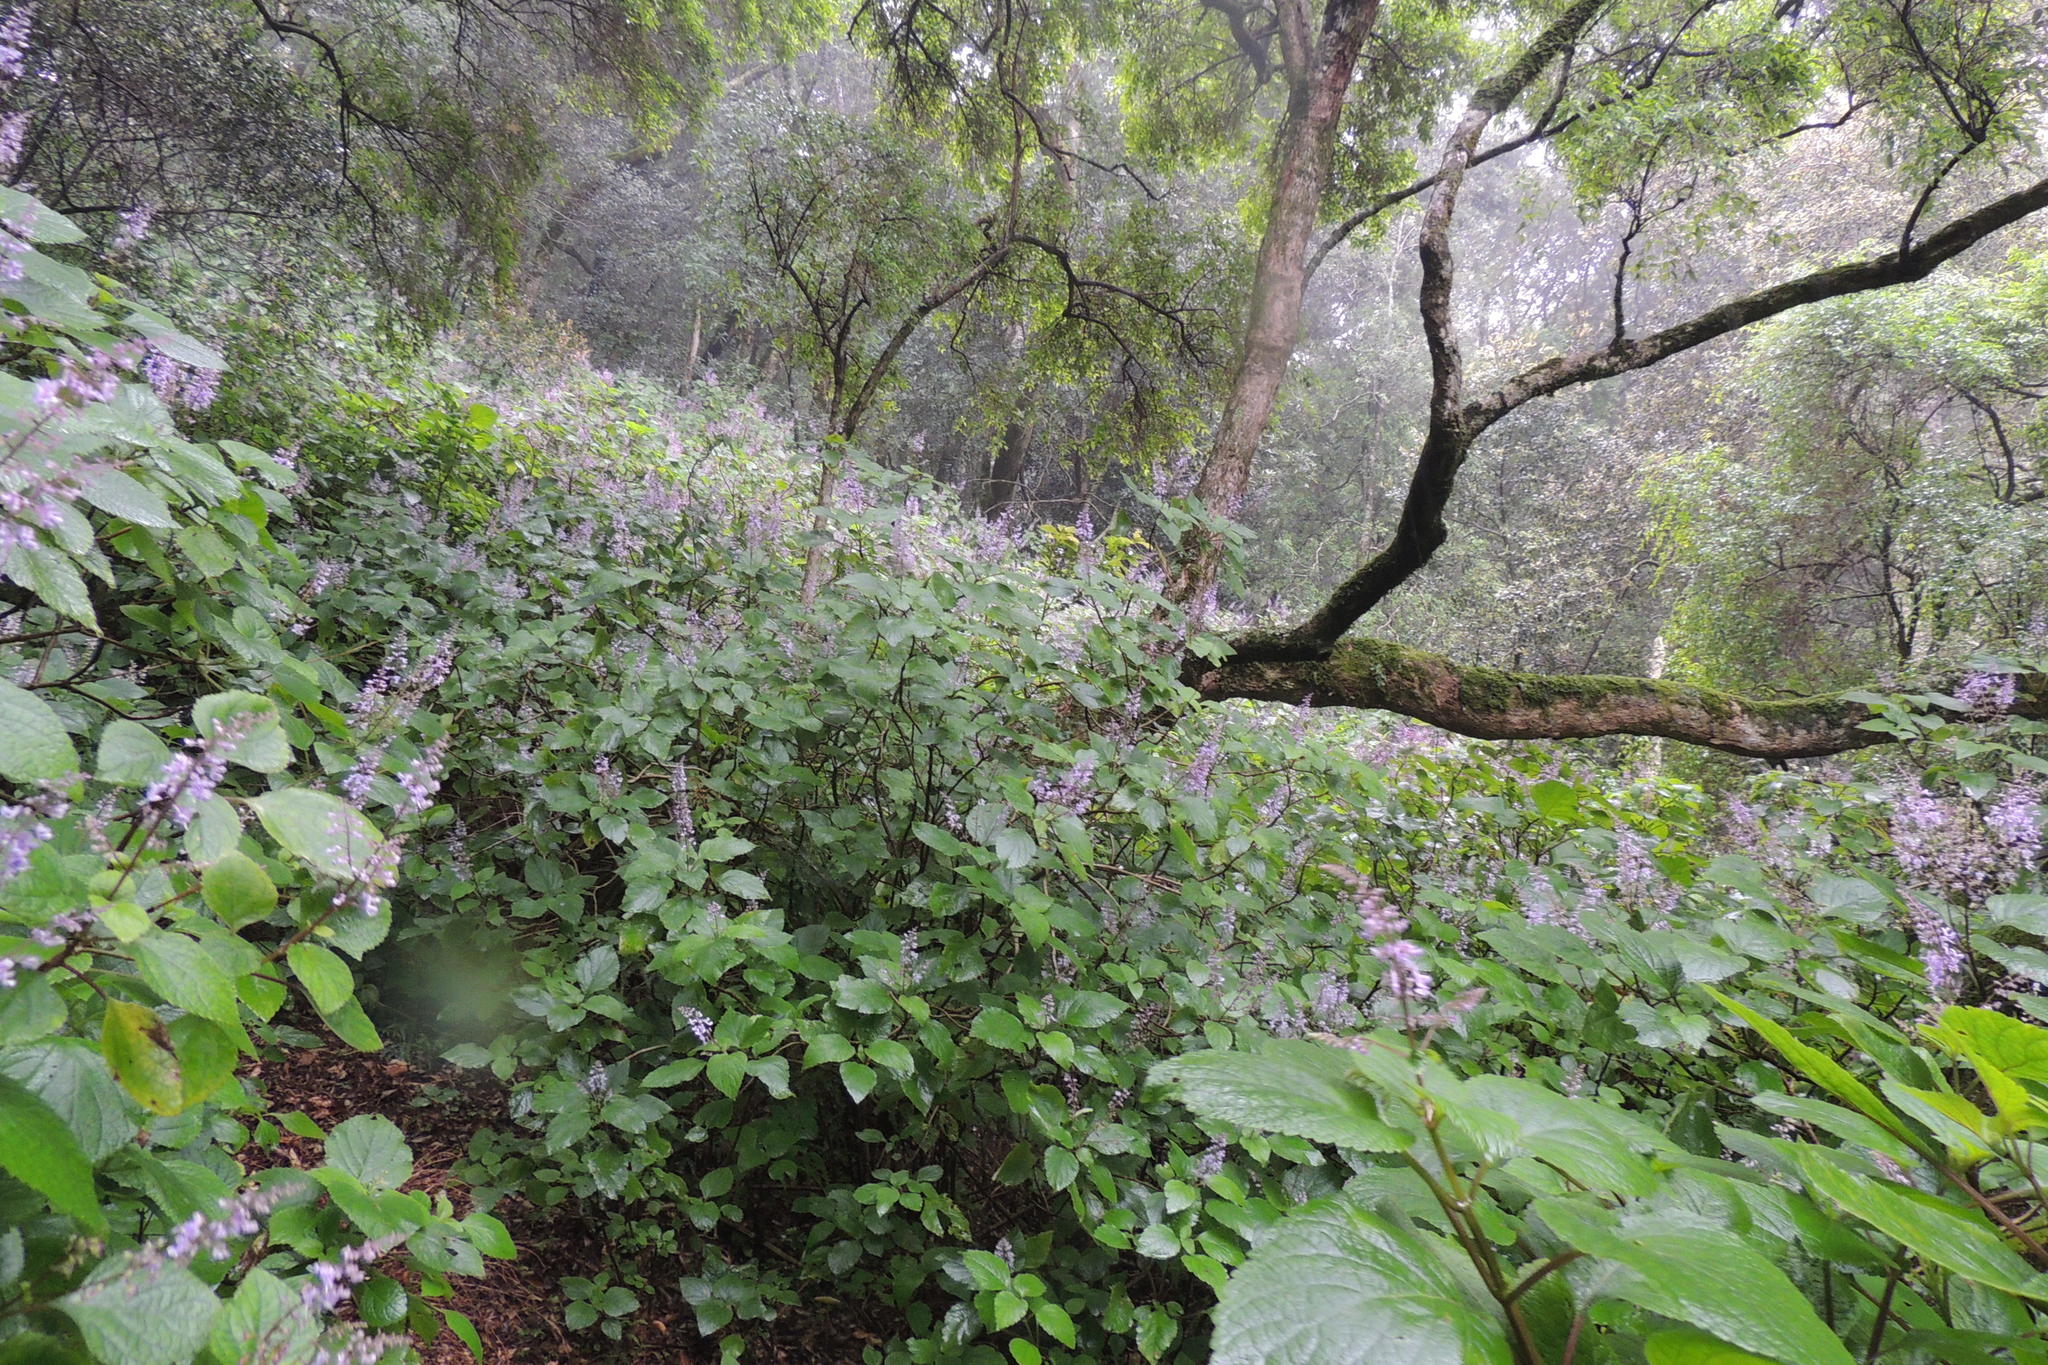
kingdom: Plantae
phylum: Tracheophyta
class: Magnoliopsida
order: Lamiales
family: Lamiaceae
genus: Plectranthus
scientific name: Plectranthus fruticosus
